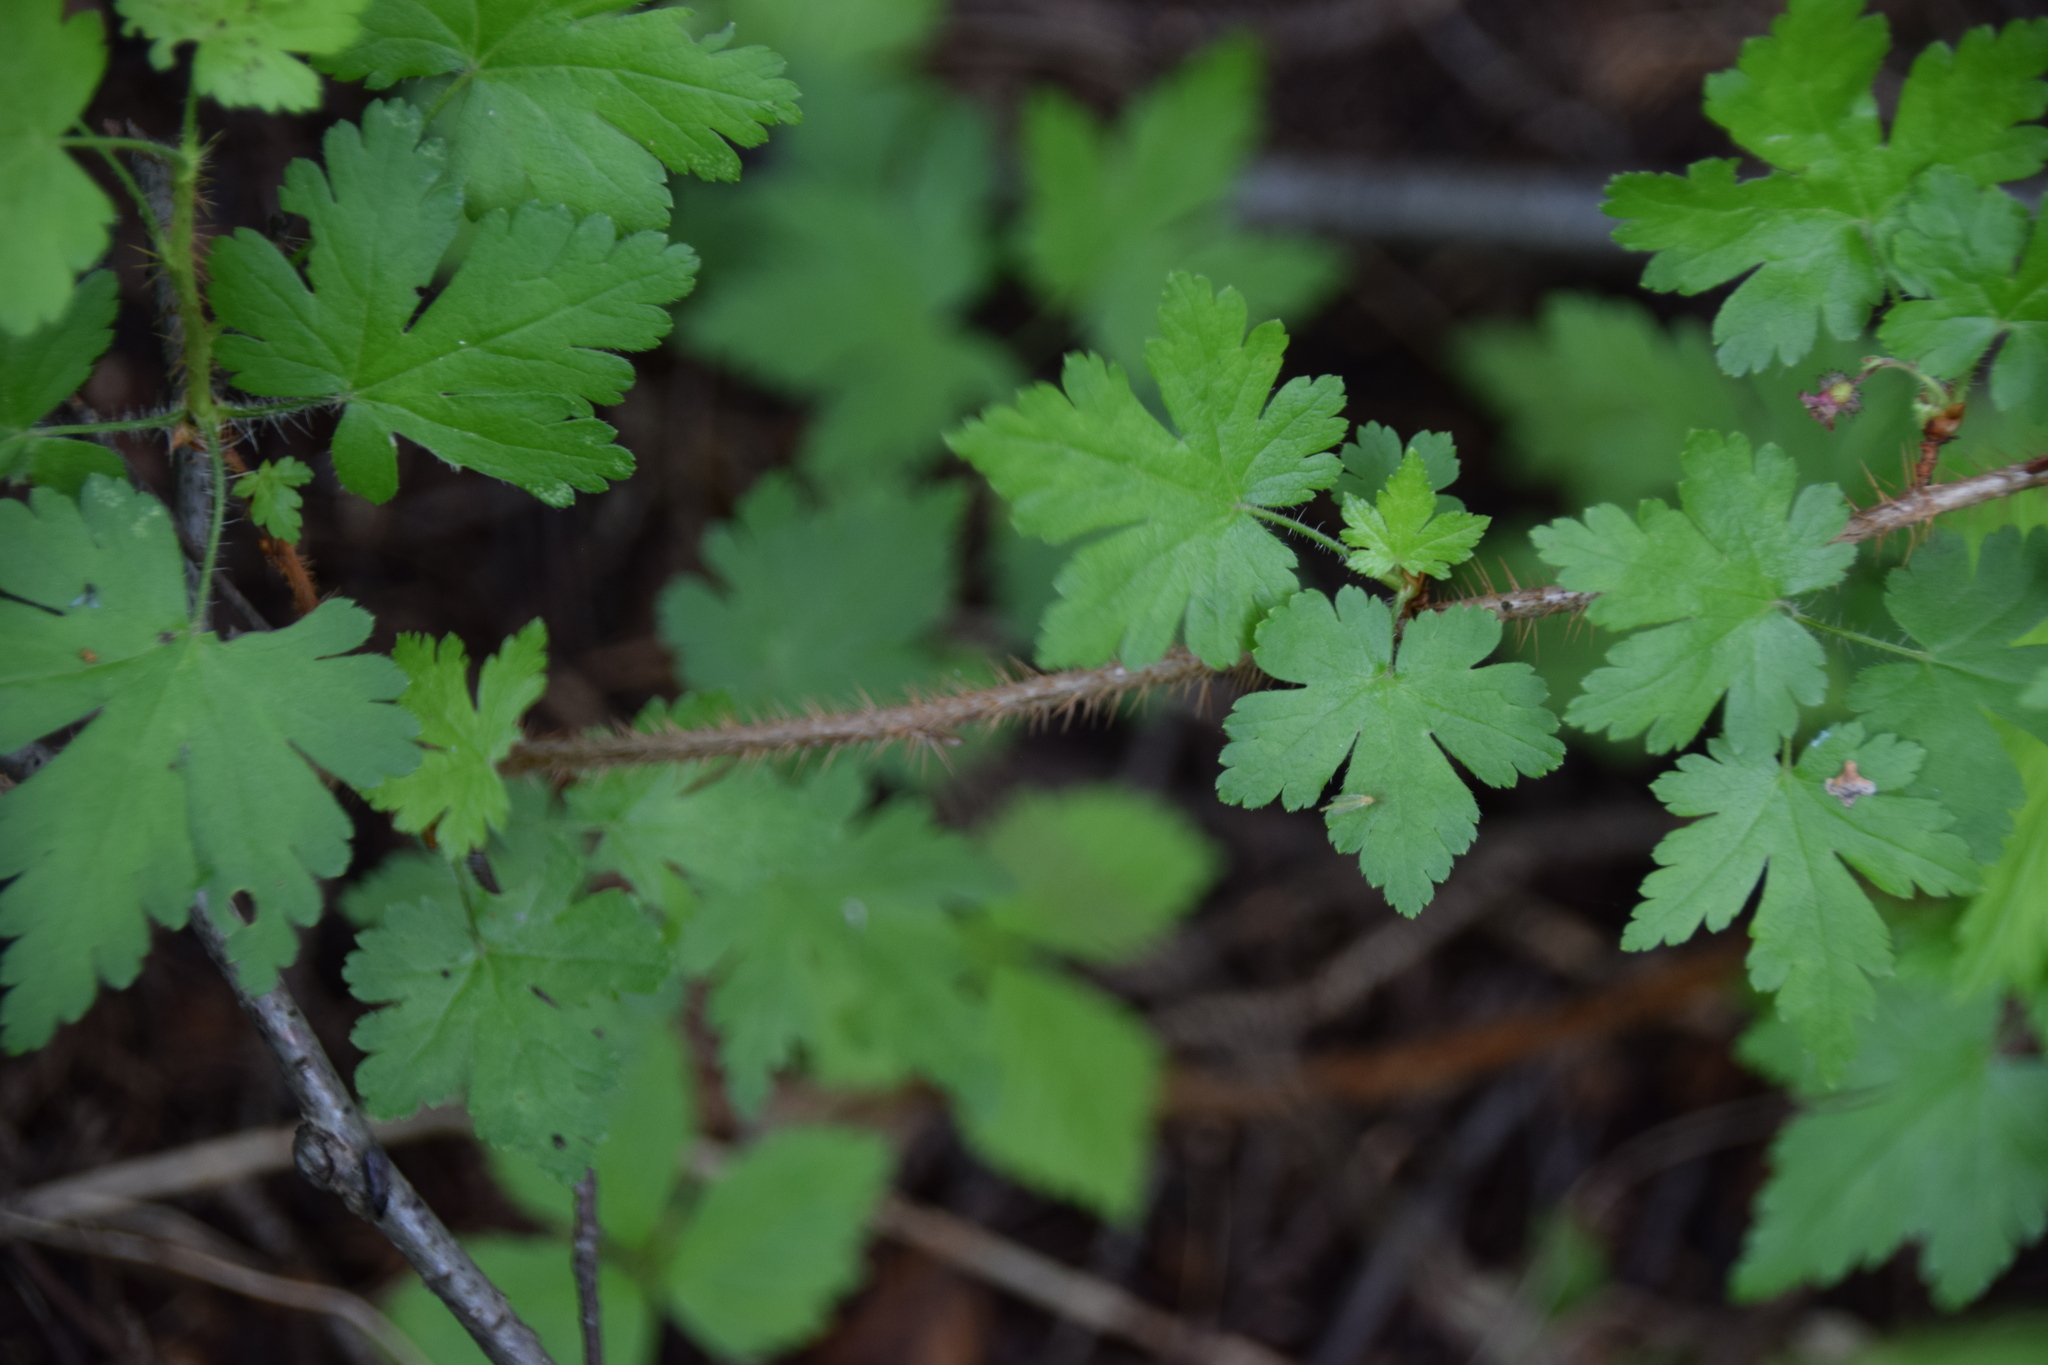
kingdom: Plantae
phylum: Tracheophyta
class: Magnoliopsida
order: Saxifragales
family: Grossulariaceae
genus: Ribes
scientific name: Ribes lacustre
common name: Black gooseberry
